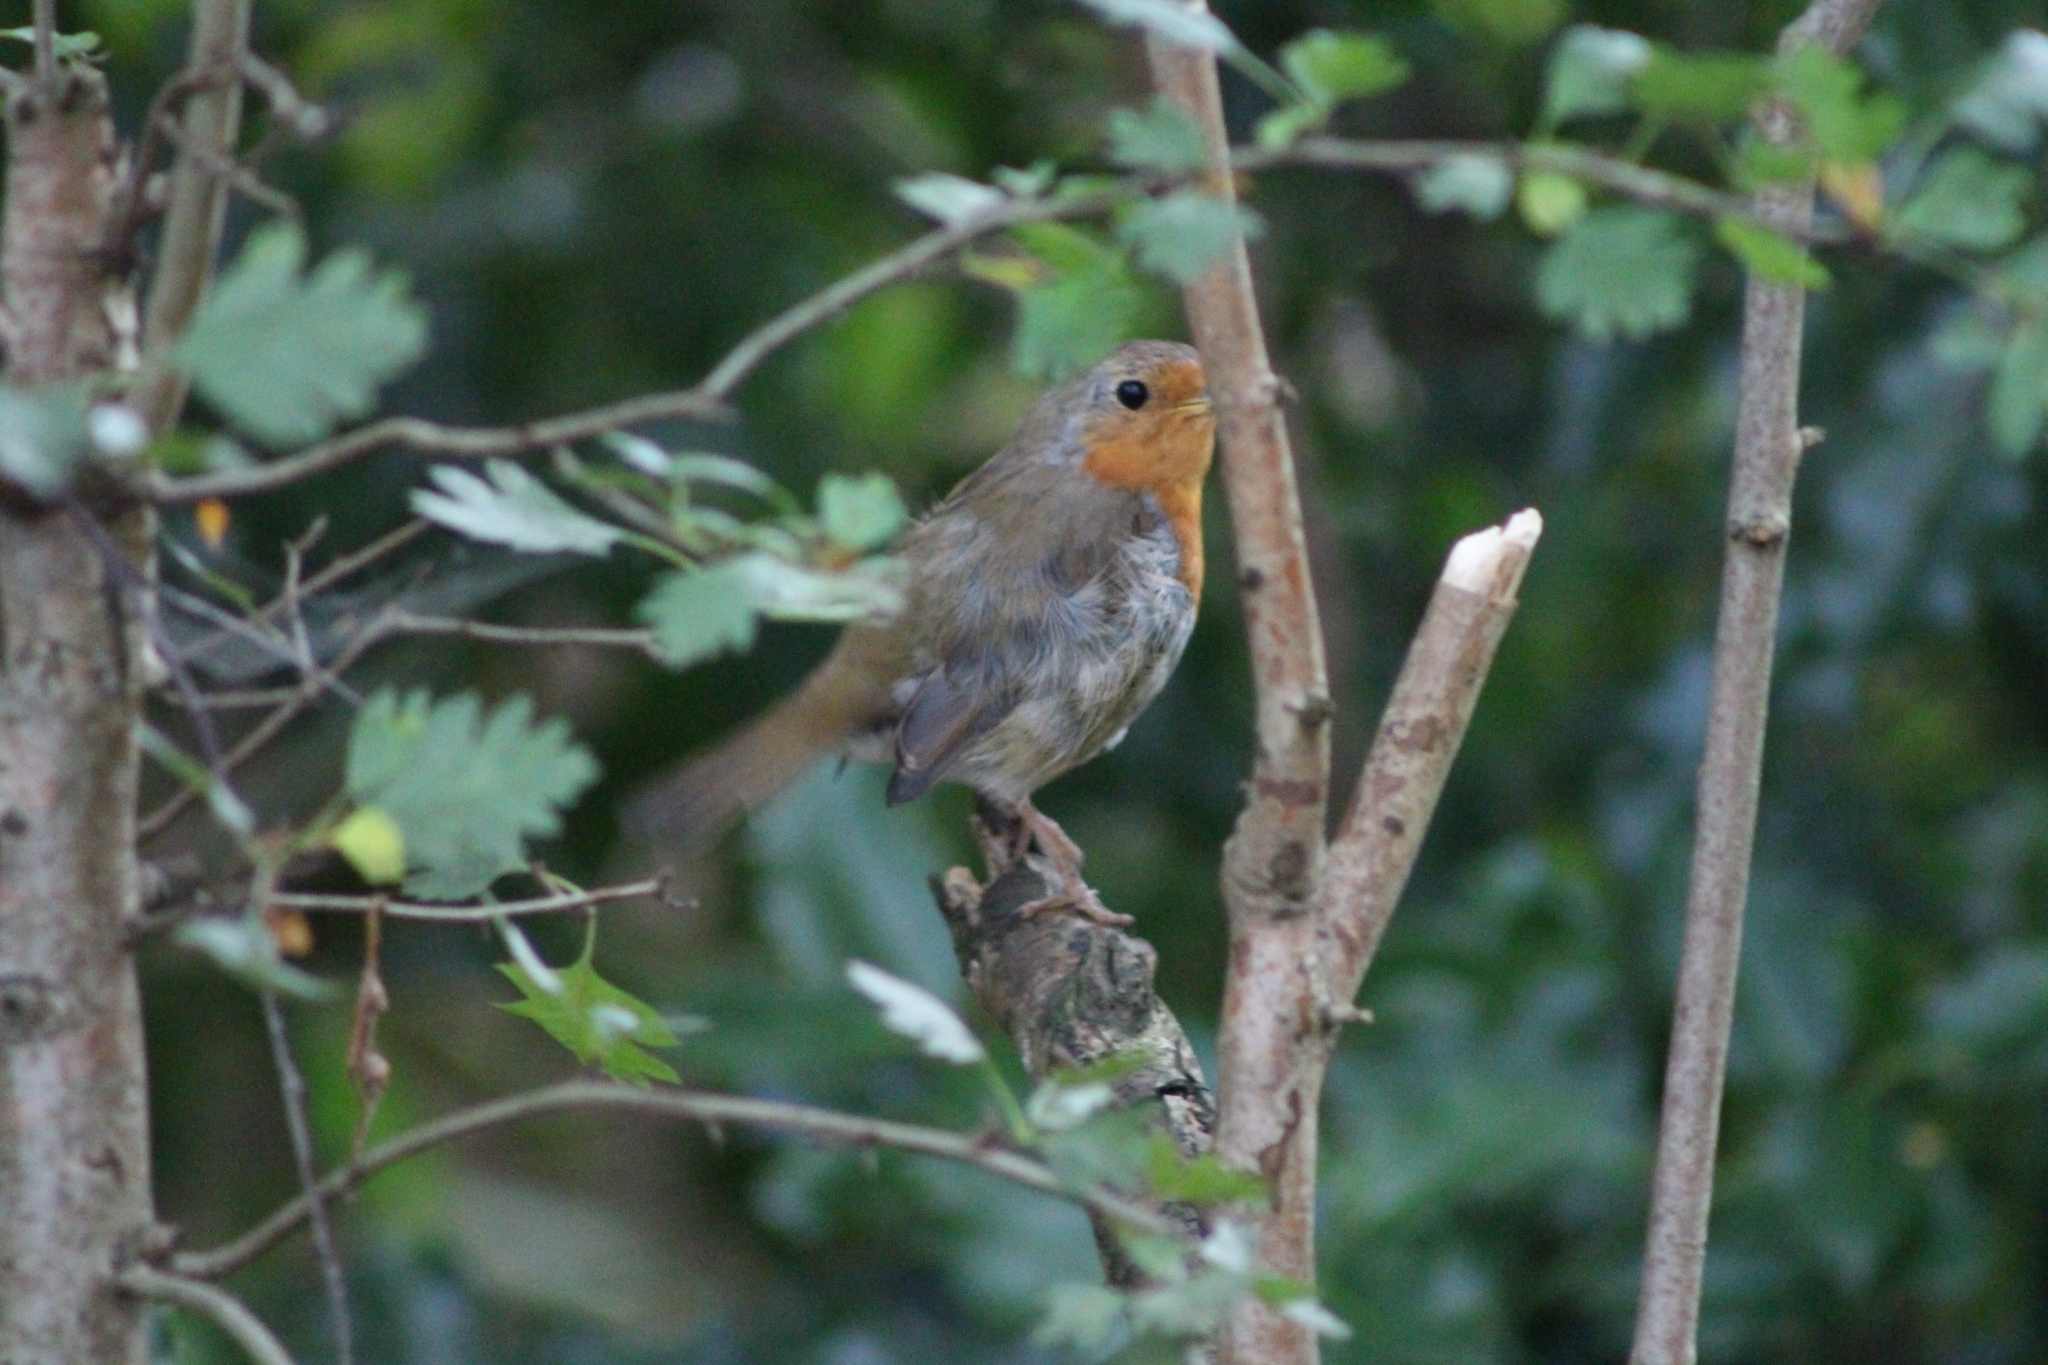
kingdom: Animalia
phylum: Chordata
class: Aves
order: Passeriformes
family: Muscicapidae
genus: Erithacus
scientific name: Erithacus rubecula
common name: European robin
